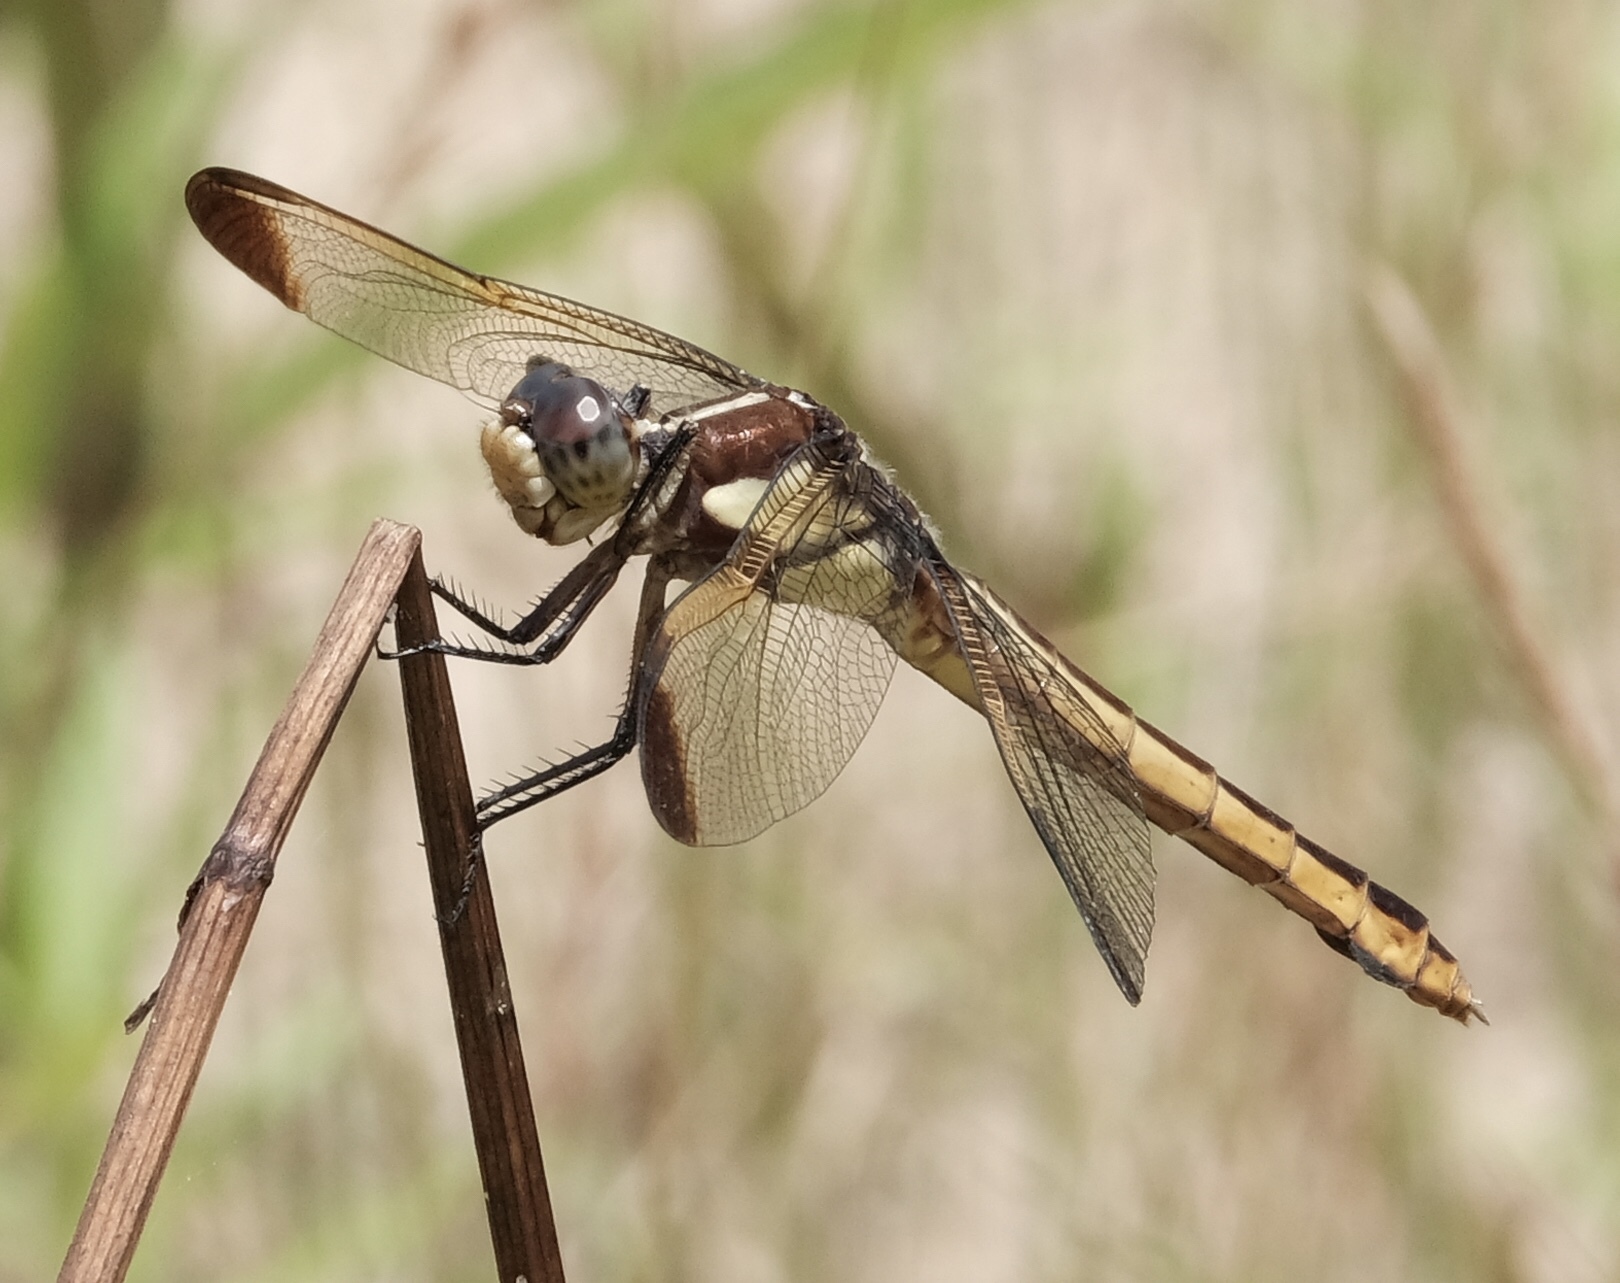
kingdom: Animalia
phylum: Arthropoda
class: Insecta
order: Odonata
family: Libellulidae
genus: Libellula
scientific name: Libellula flavida
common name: Yellow-sided skimmer
